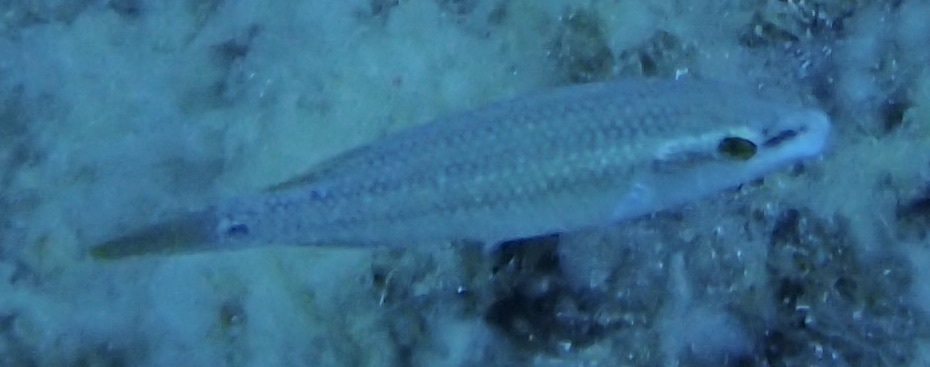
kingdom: Animalia
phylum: Chordata
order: Perciformes
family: Labridae
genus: Symphodus
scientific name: Symphodus tinca
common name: Peacock wrasse
